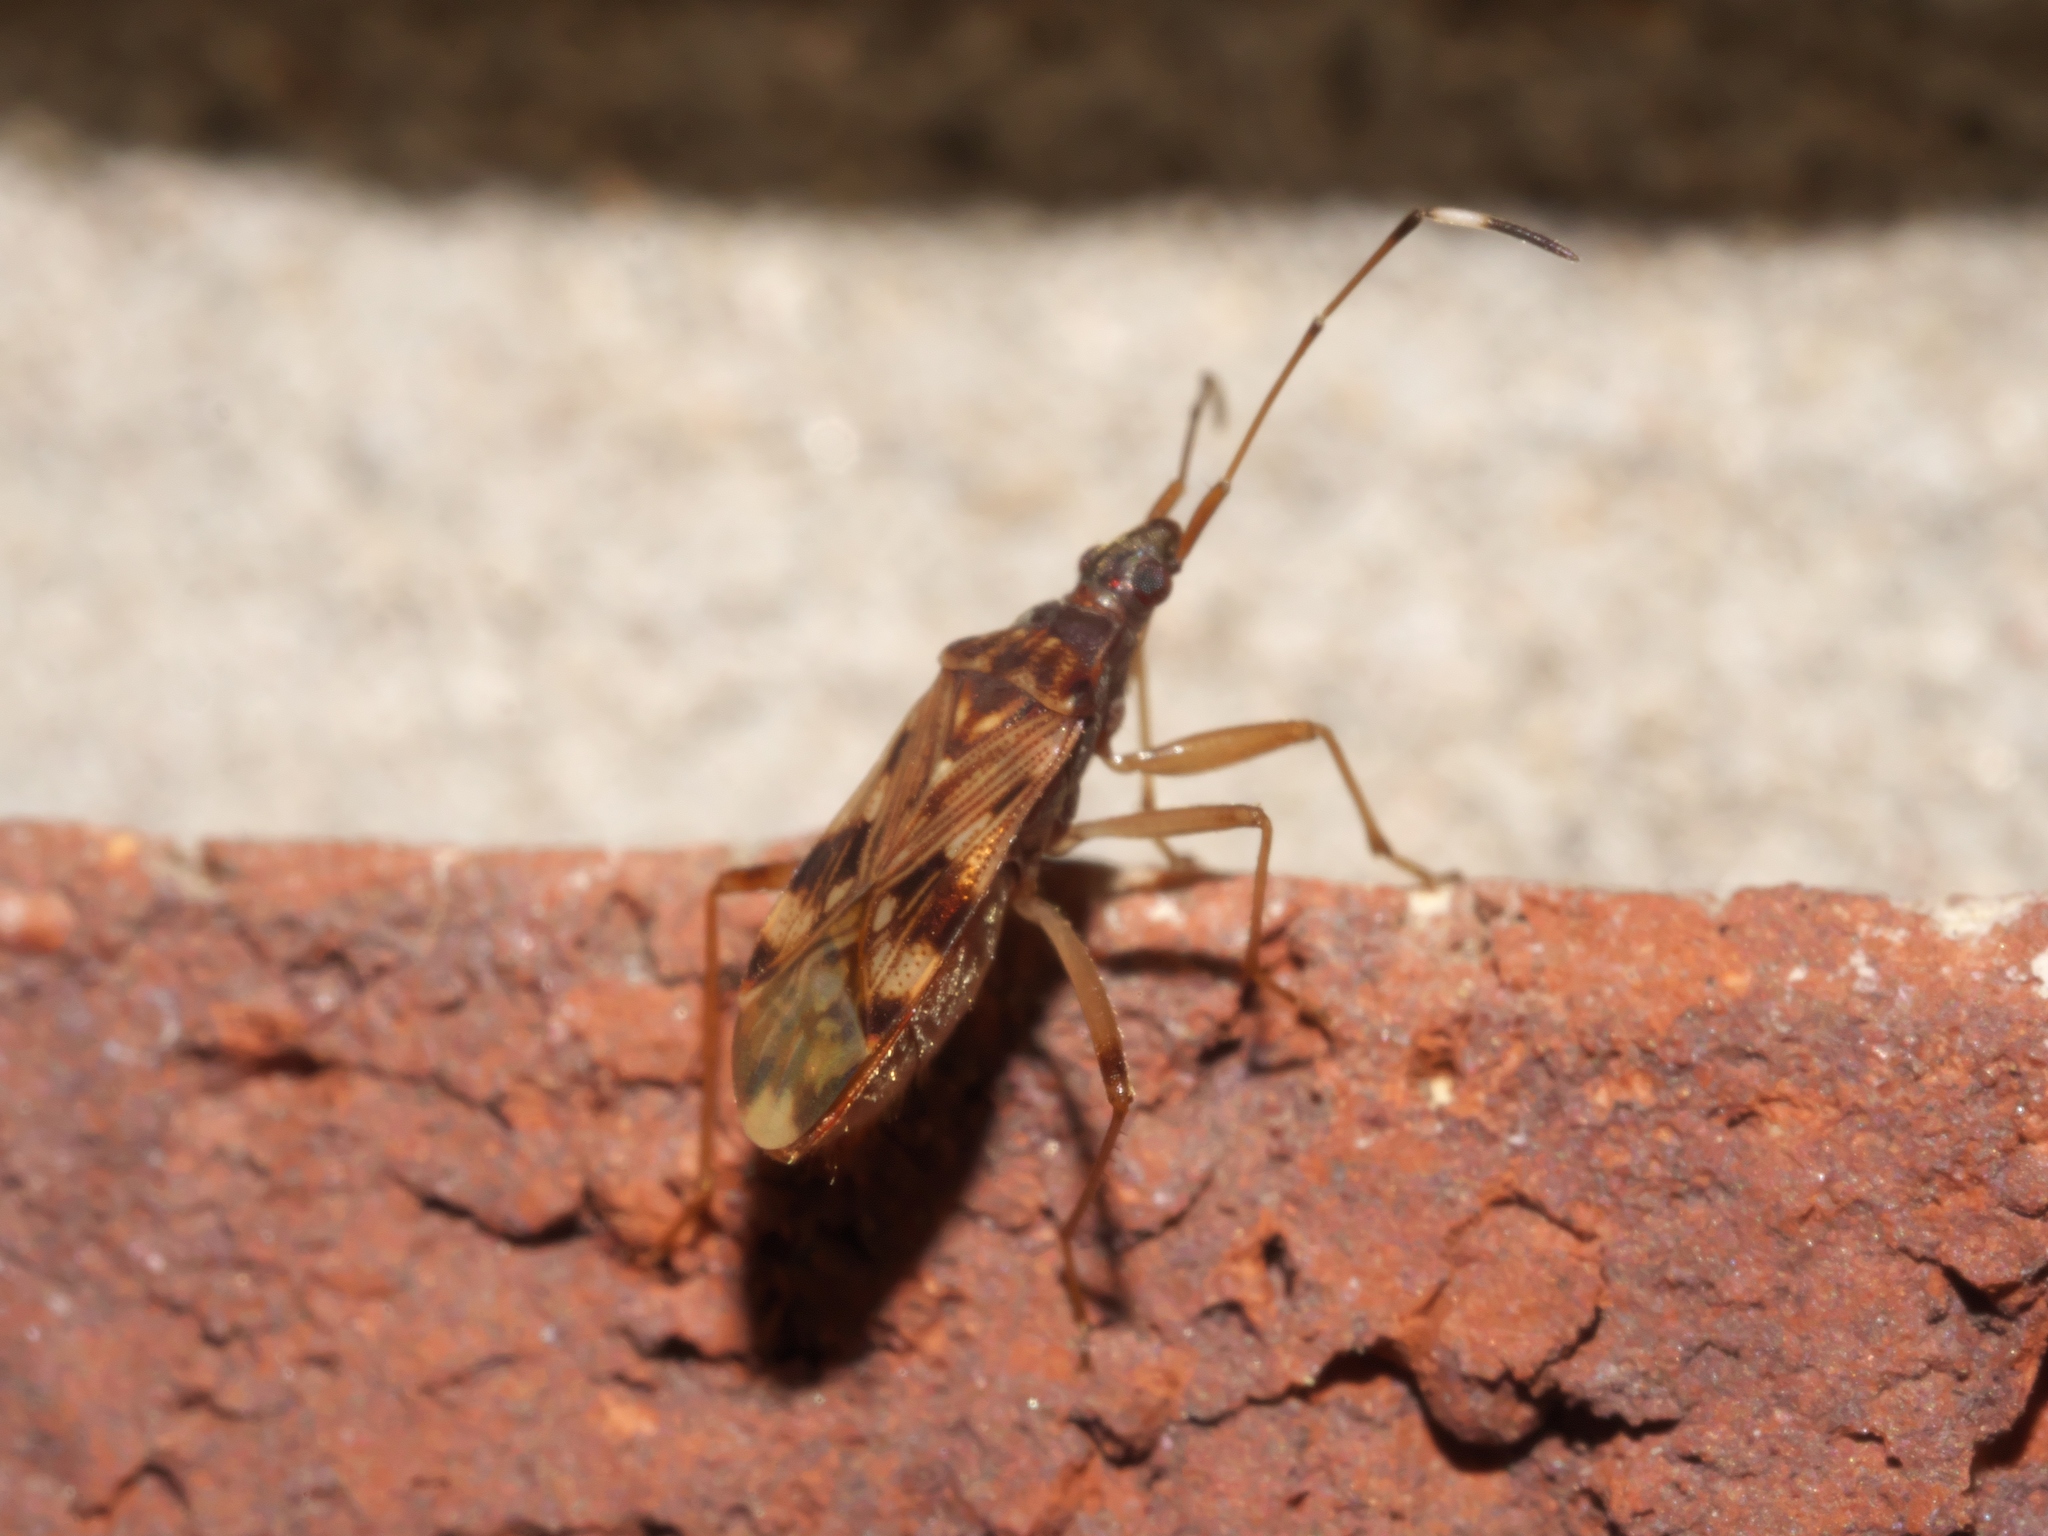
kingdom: Animalia
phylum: Arthropoda
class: Insecta
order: Hemiptera
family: Rhyparochromidae
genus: Ozophora
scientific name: Ozophora picturata
